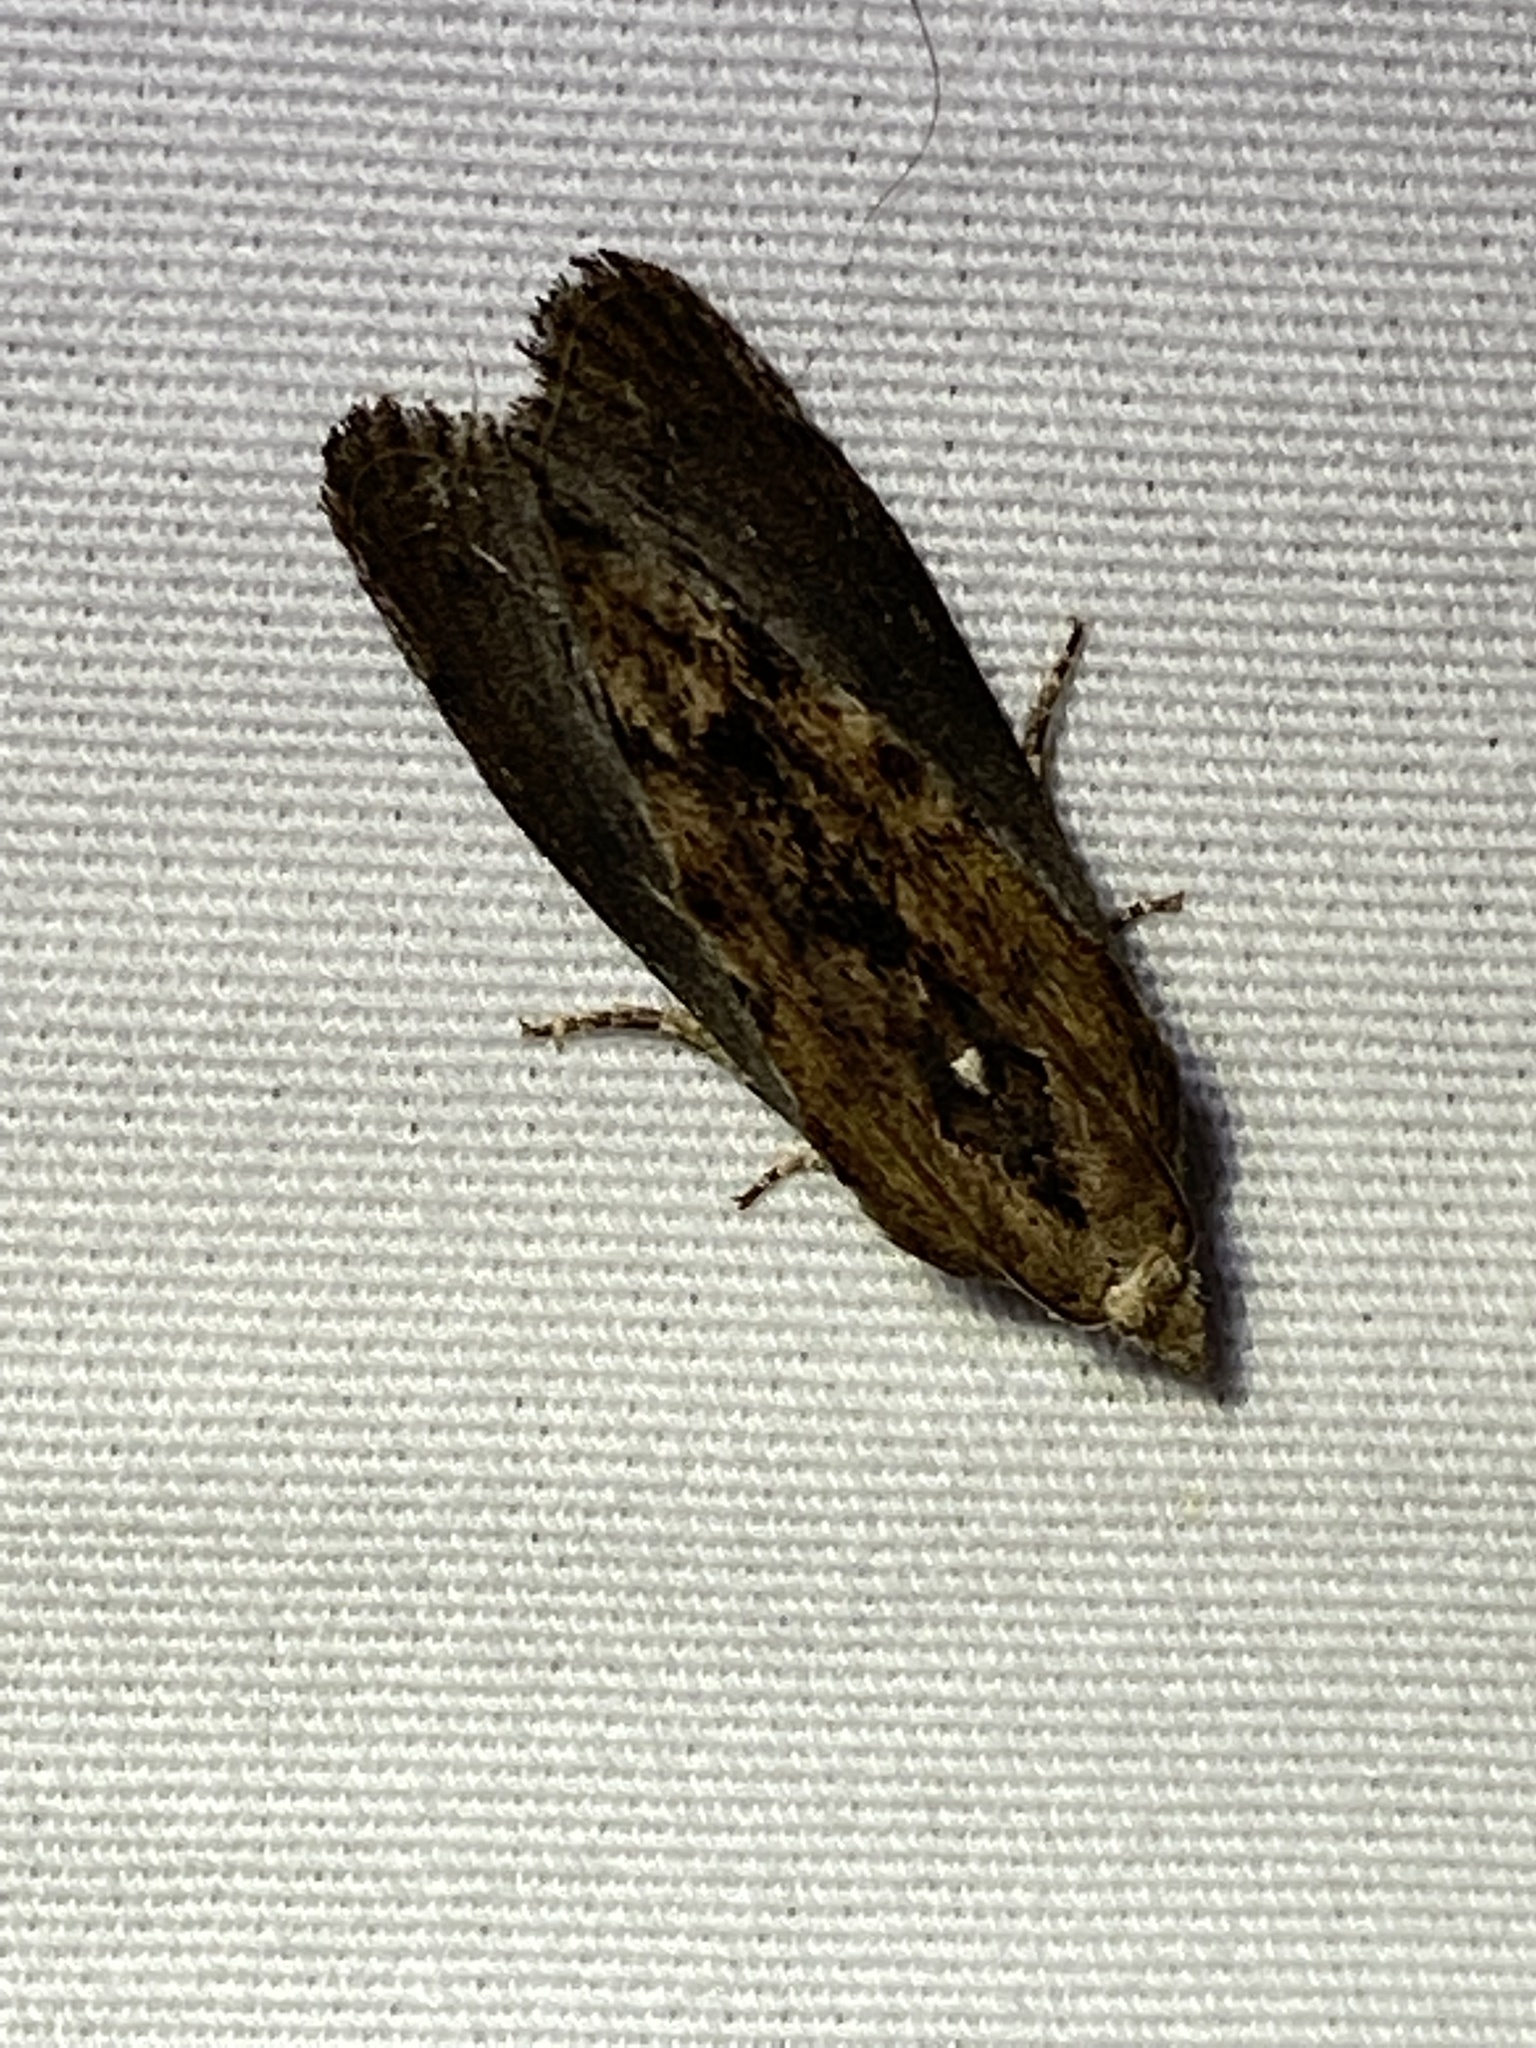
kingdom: Animalia
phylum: Arthropoda
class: Insecta
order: Lepidoptera
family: Pyralidae
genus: Galleria
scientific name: Galleria mellonella
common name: Greater wax moth
